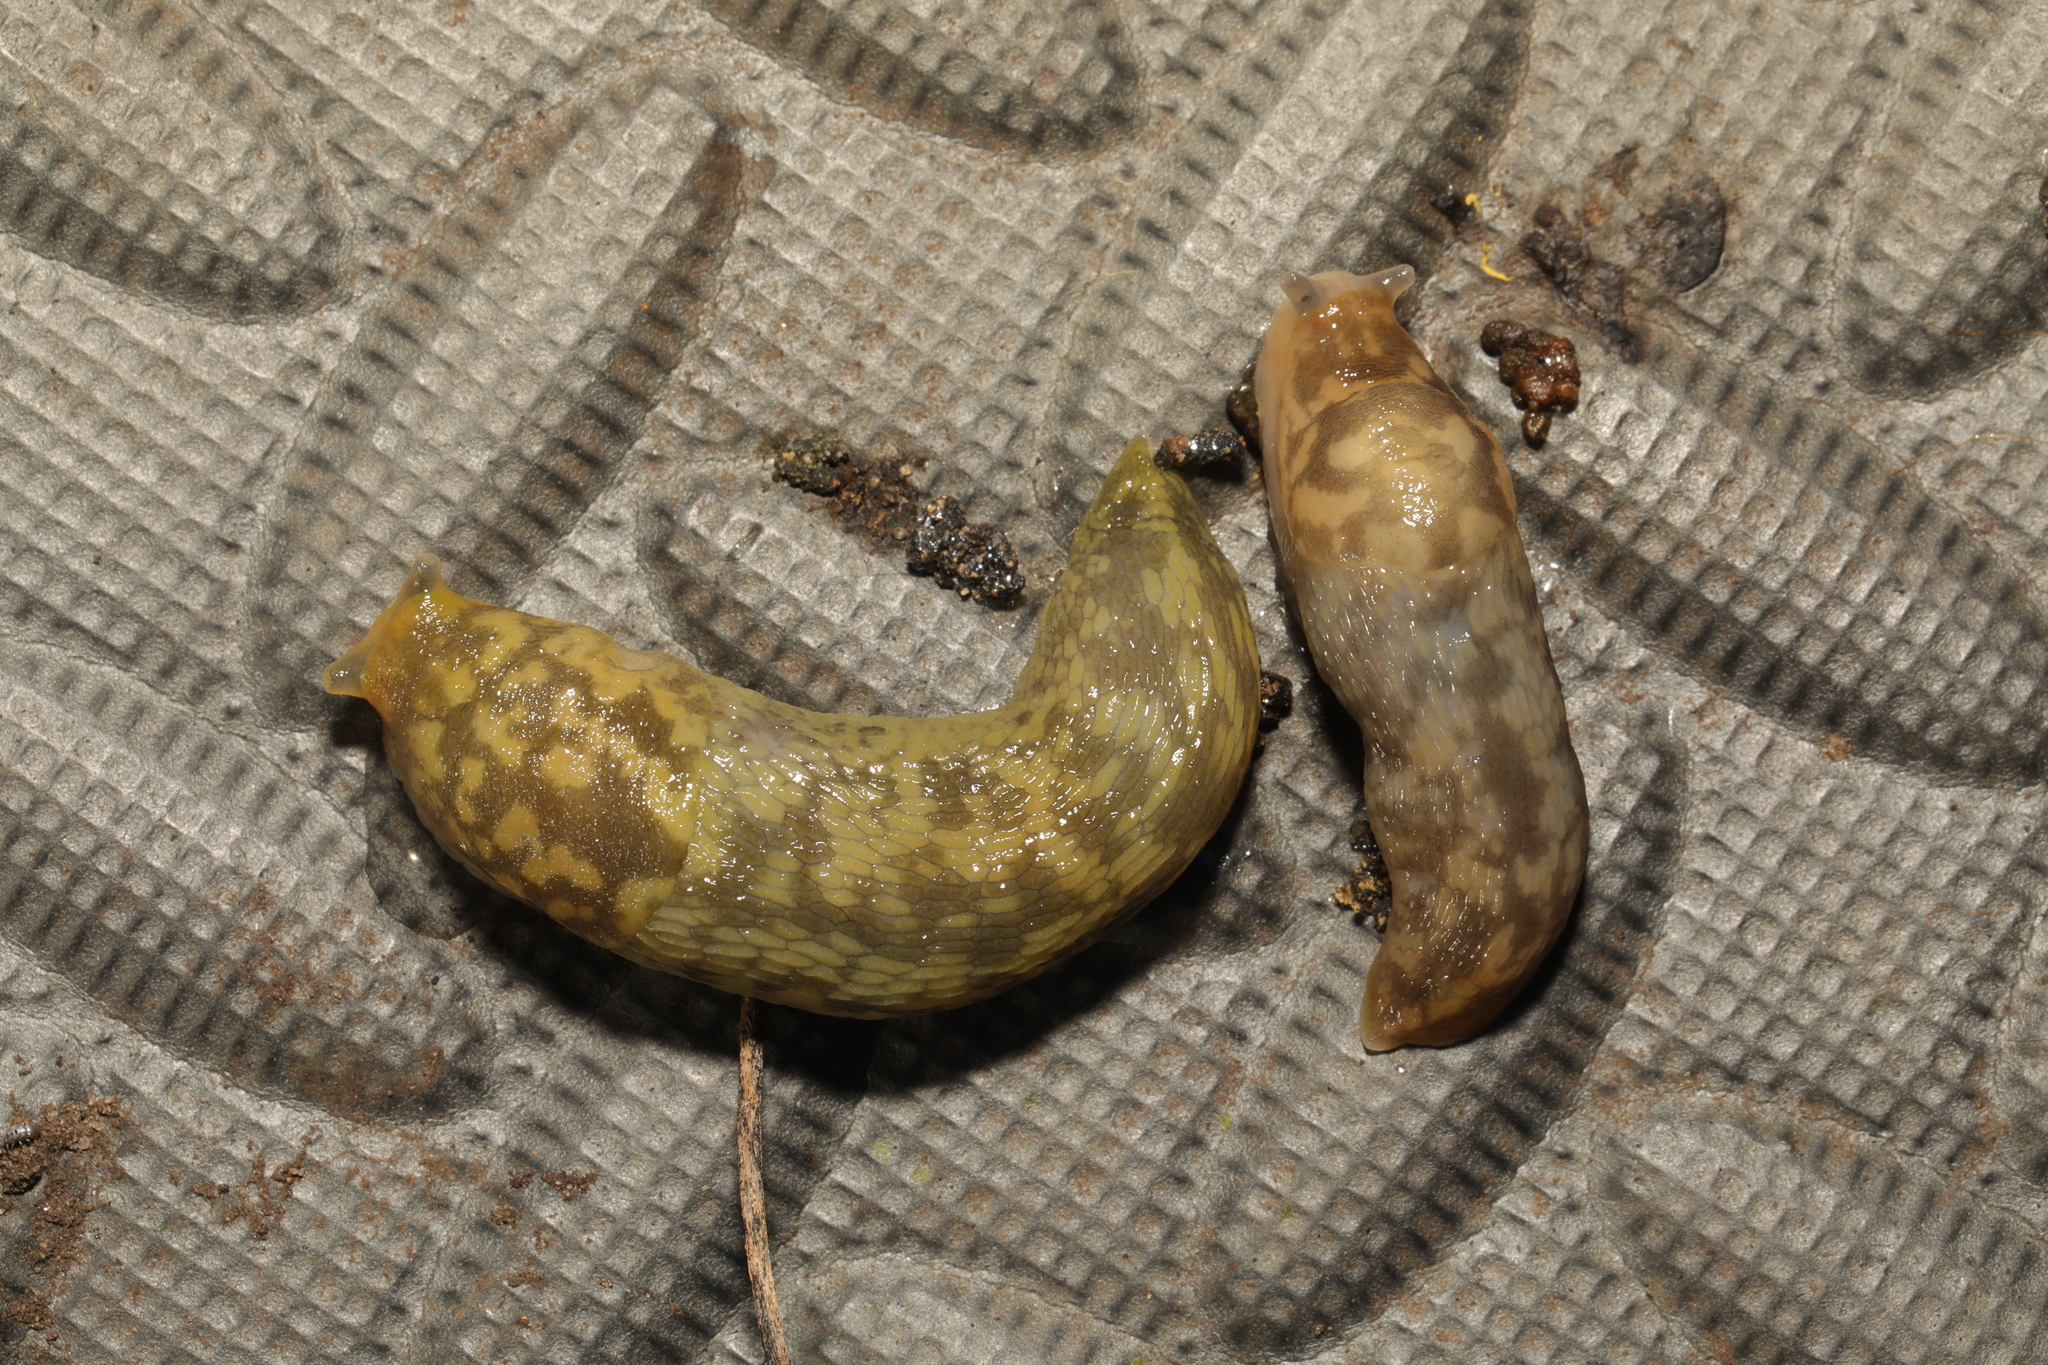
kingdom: Animalia
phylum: Mollusca
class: Gastropoda
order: Stylommatophora
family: Limacidae
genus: Limacus
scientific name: Limacus maculatus
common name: Irish yellow slug
